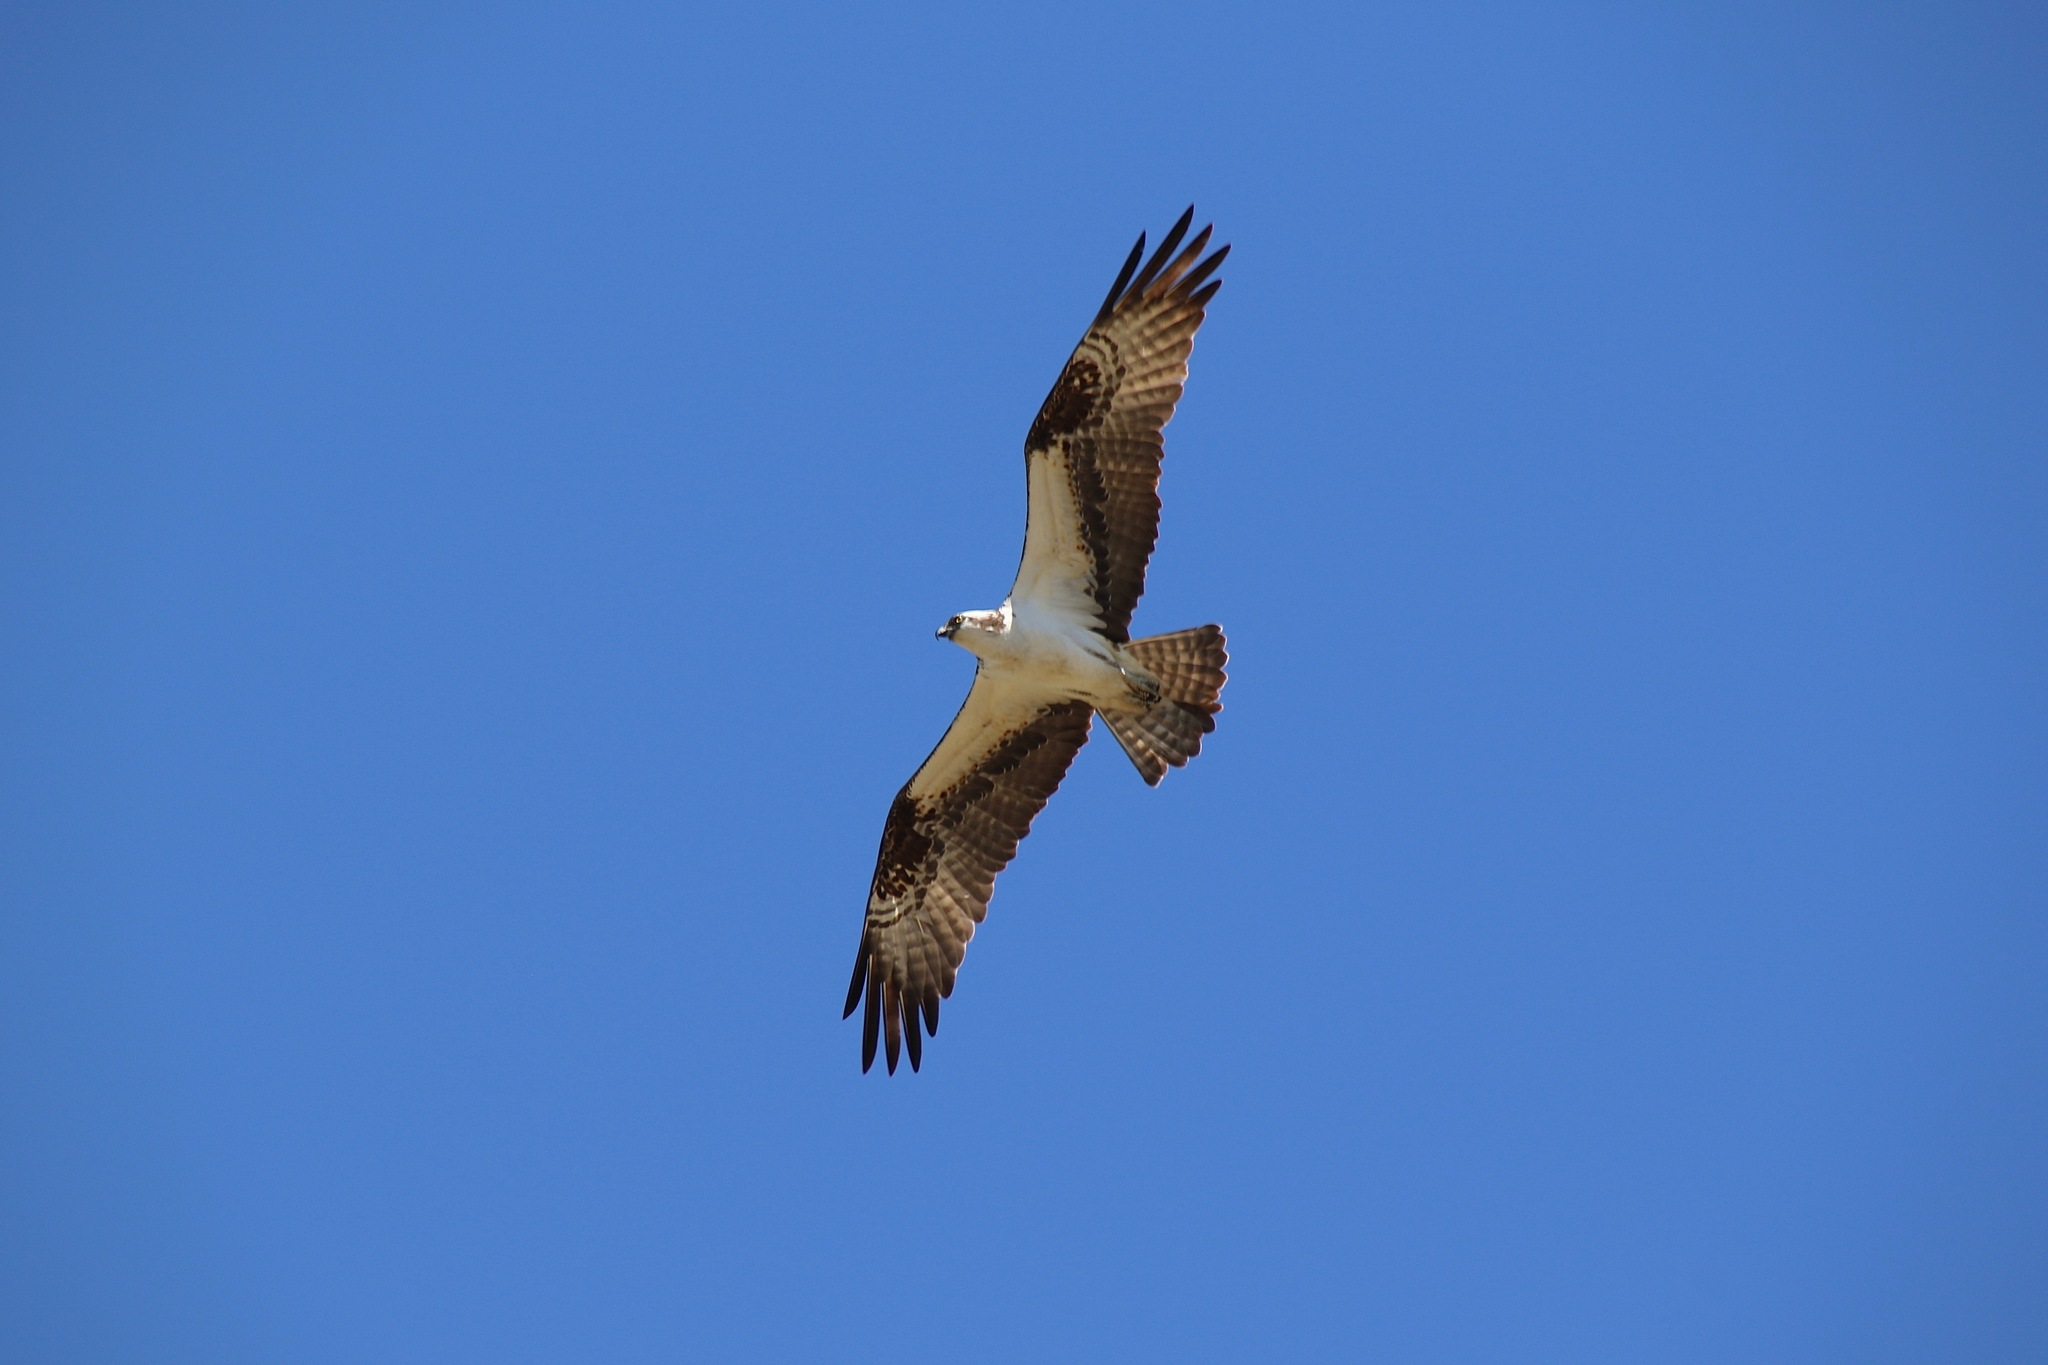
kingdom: Animalia
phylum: Chordata
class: Aves
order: Accipitriformes
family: Pandionidae
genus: Pandion
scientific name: Pandion haliaetus
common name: Osprey
